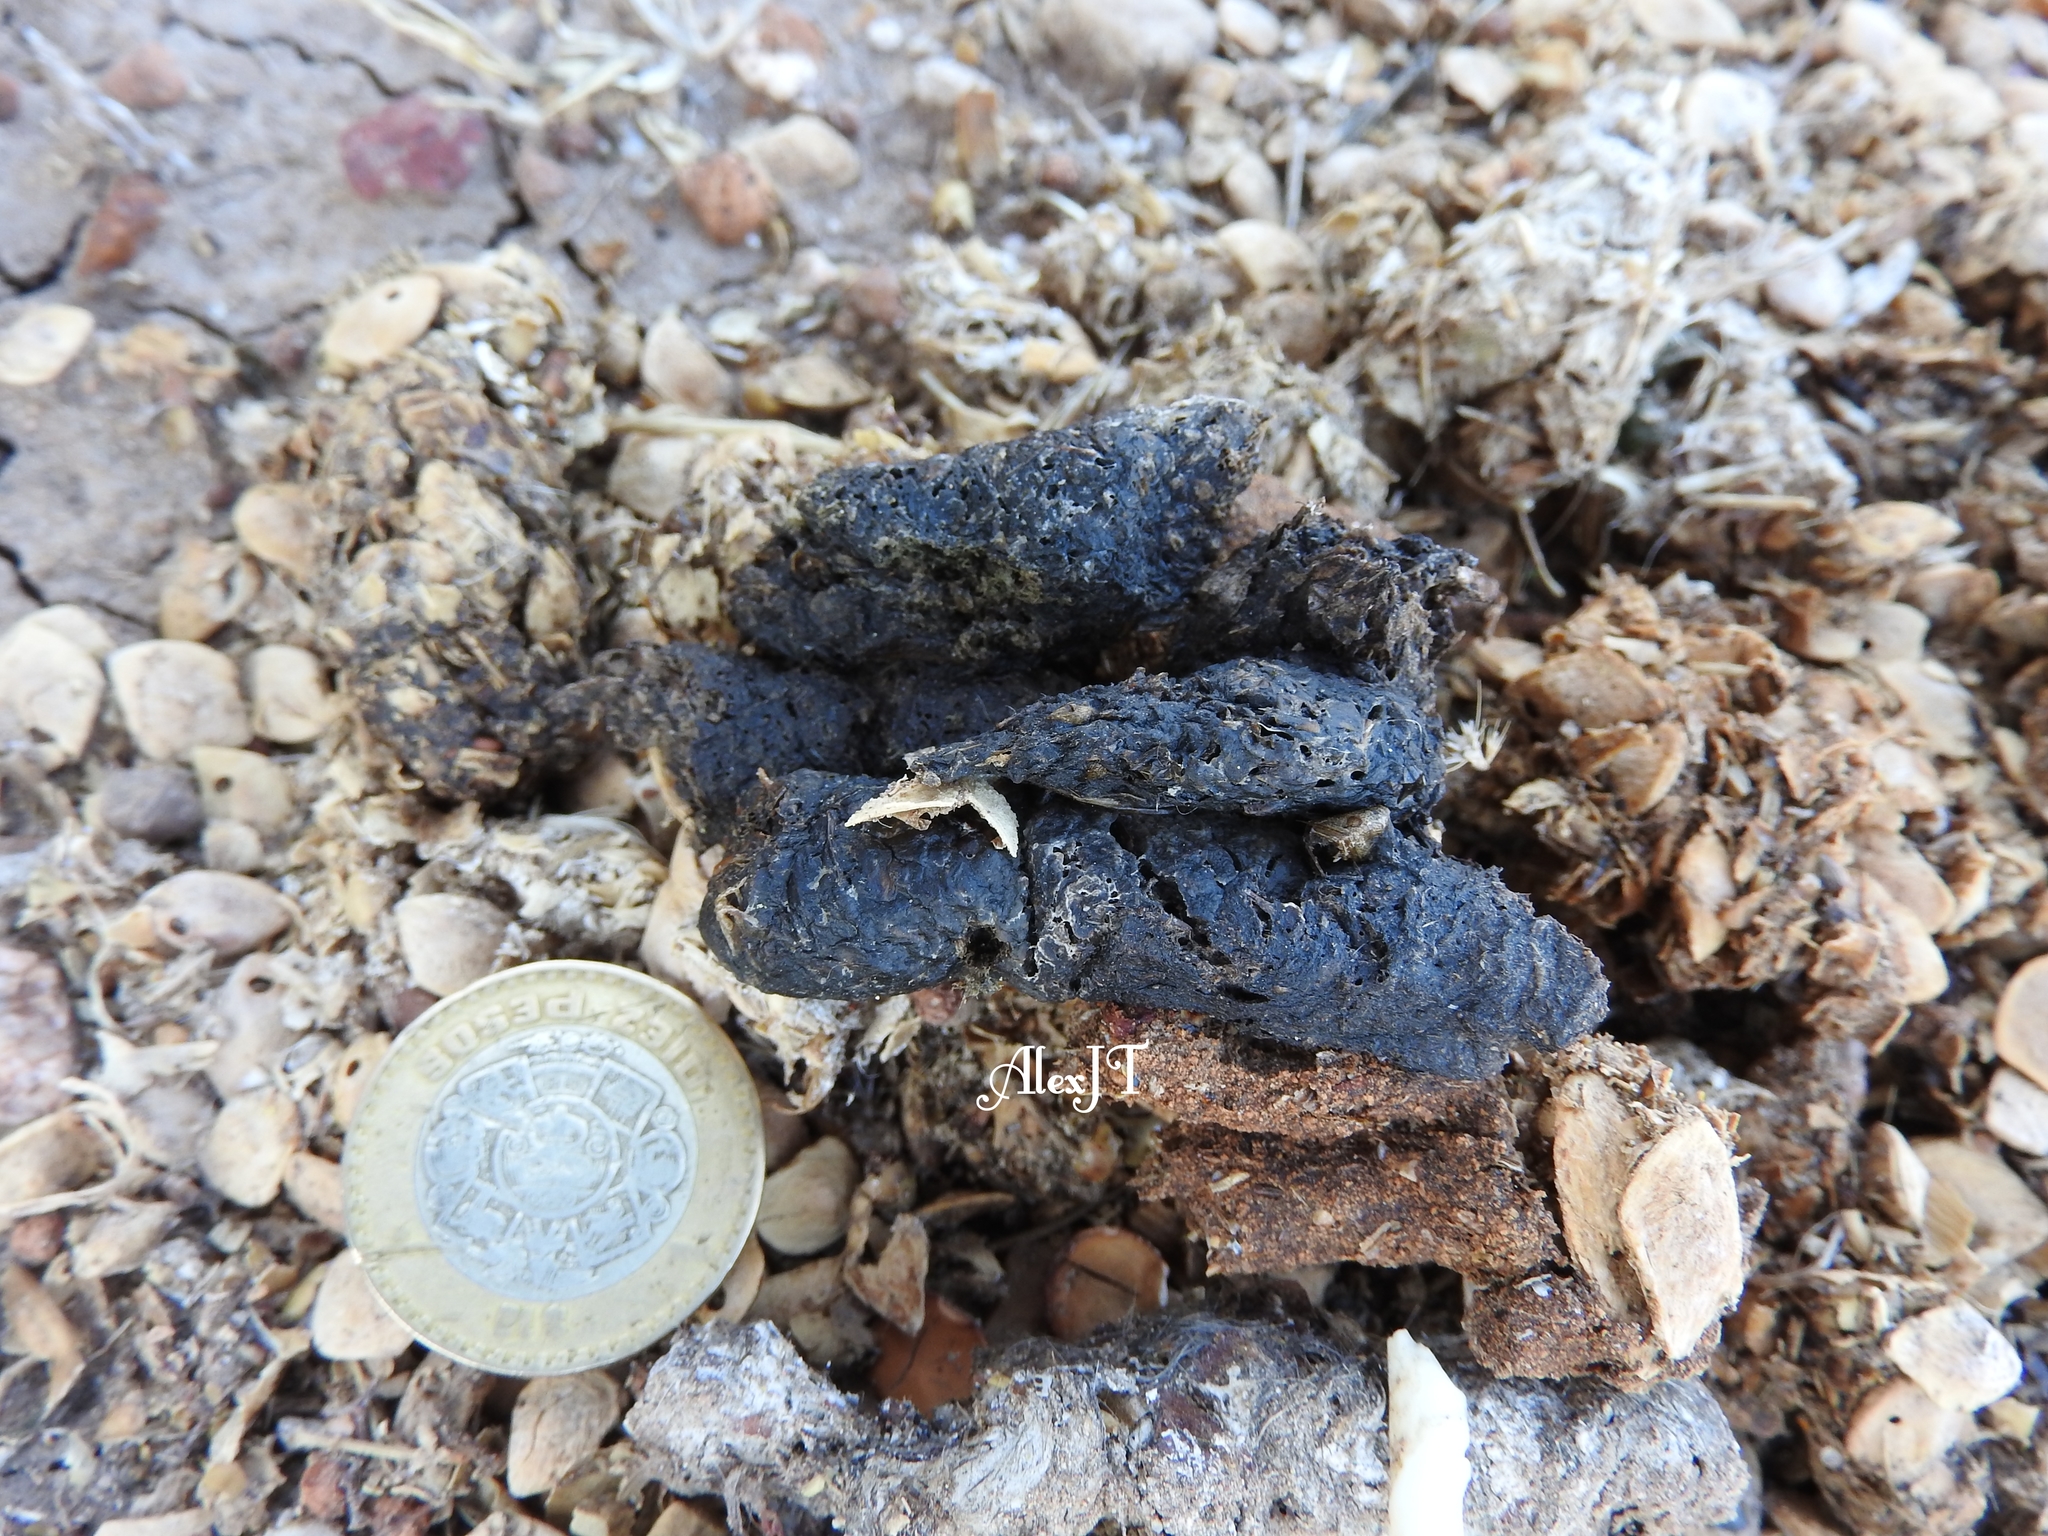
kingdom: Animalia
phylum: Chordata
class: Mammalia
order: Carnivora
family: Felidae
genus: Lynx
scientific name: Lynx rufus
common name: Bobcat
